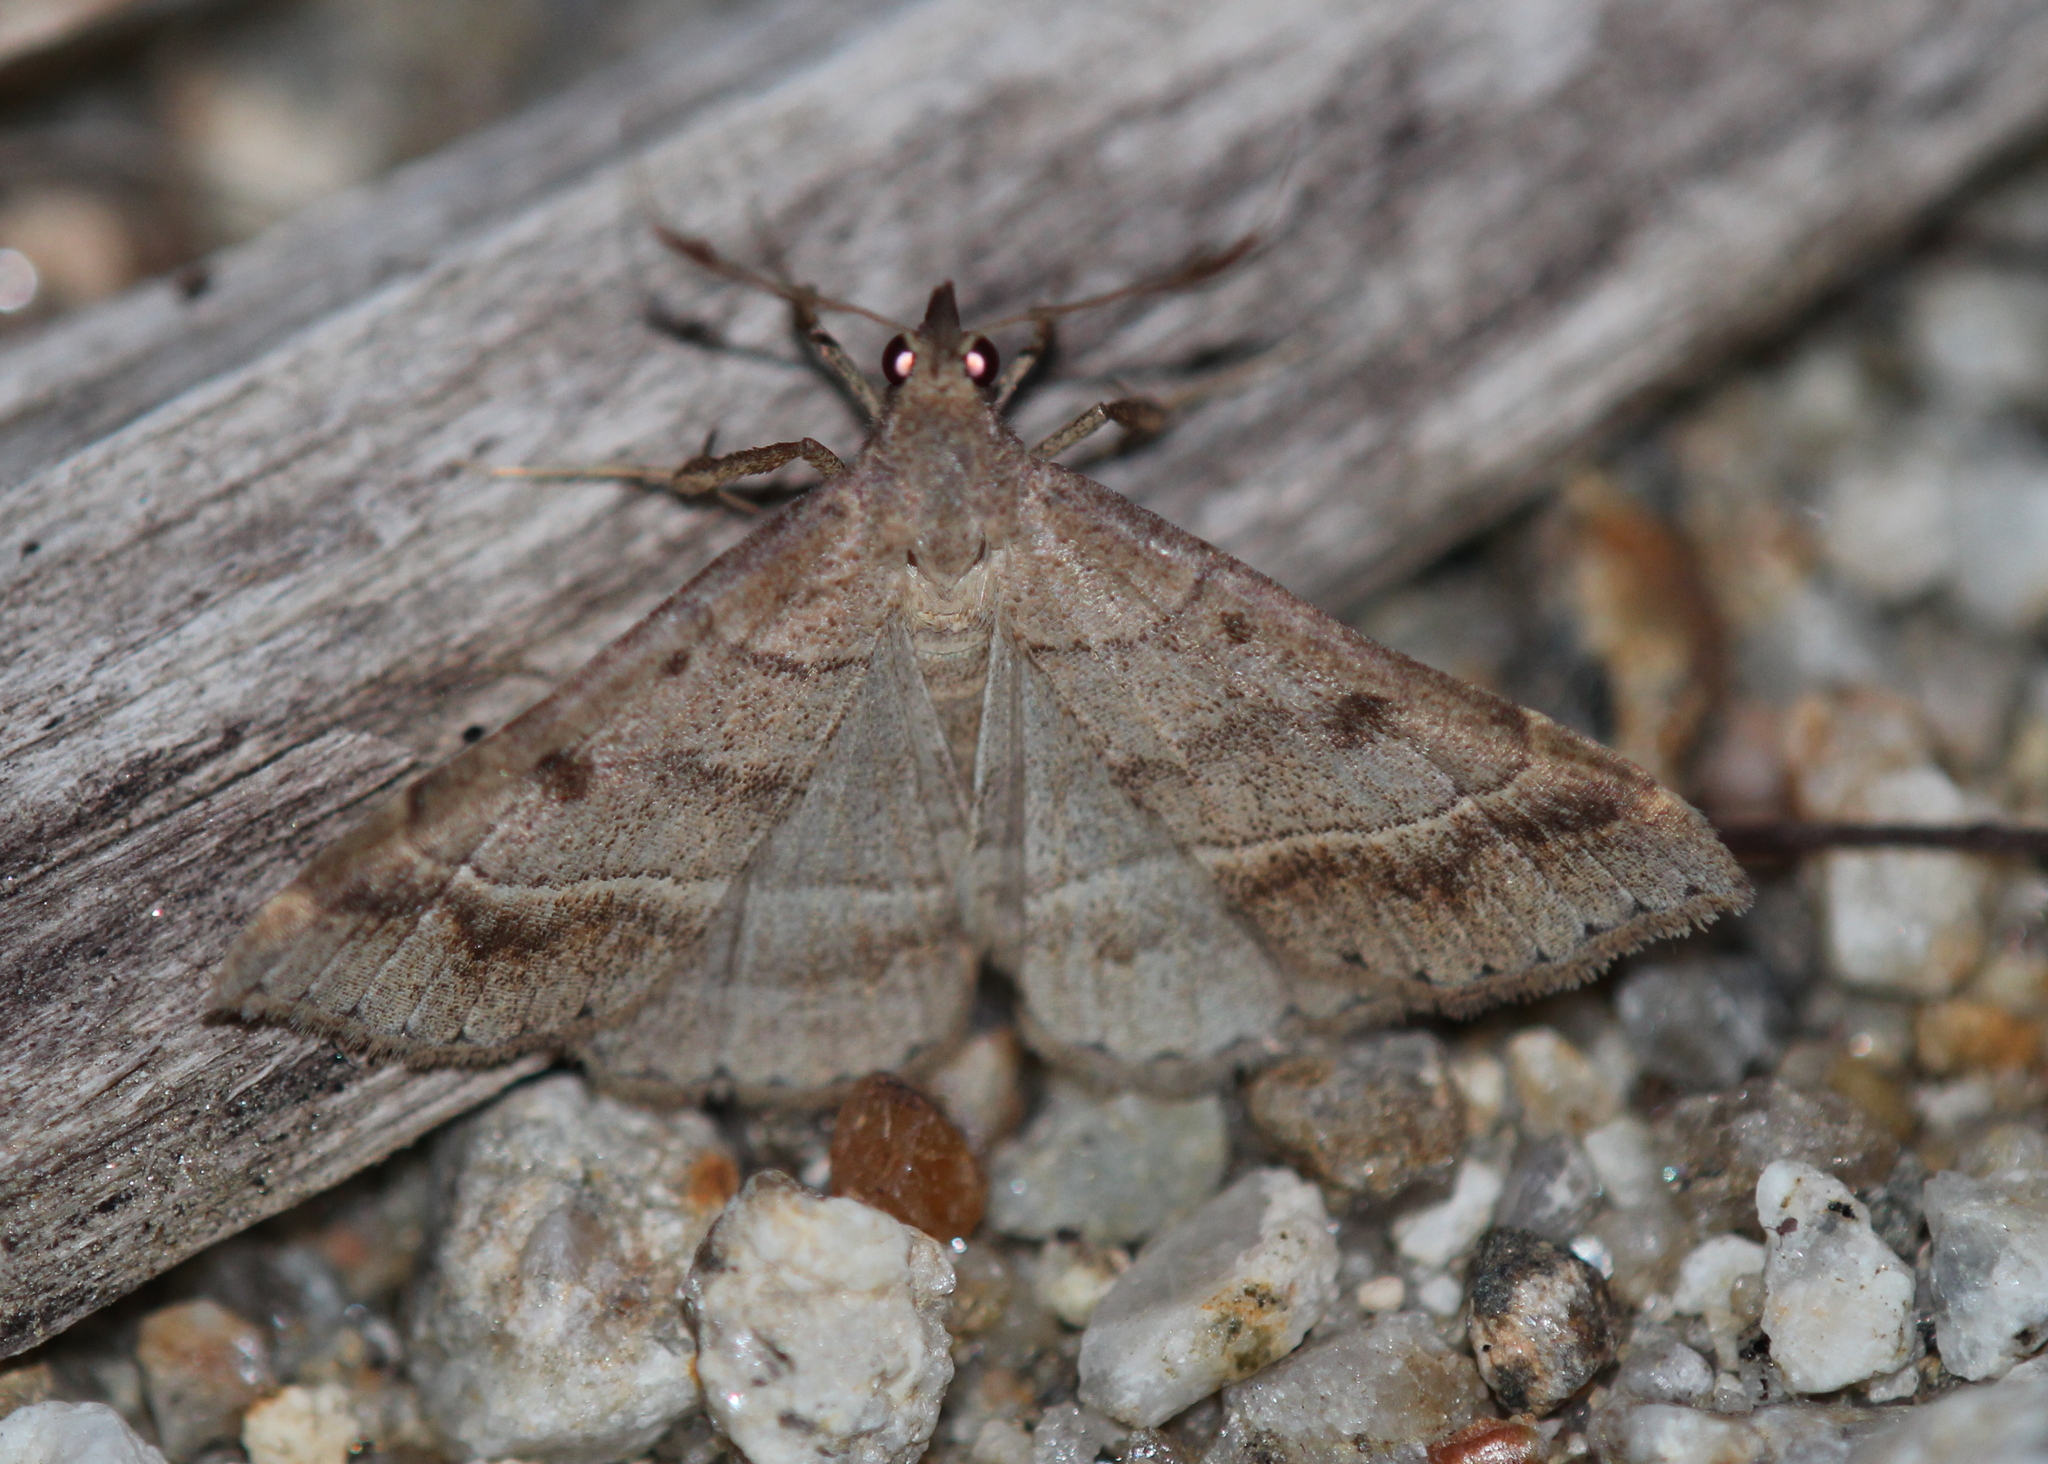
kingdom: Animalia
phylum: Arthropoda
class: Insecta
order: Lepidoptera
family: Erebidae
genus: Renia
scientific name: Renia flavipunctalis
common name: Yellow-spotted renia moth
